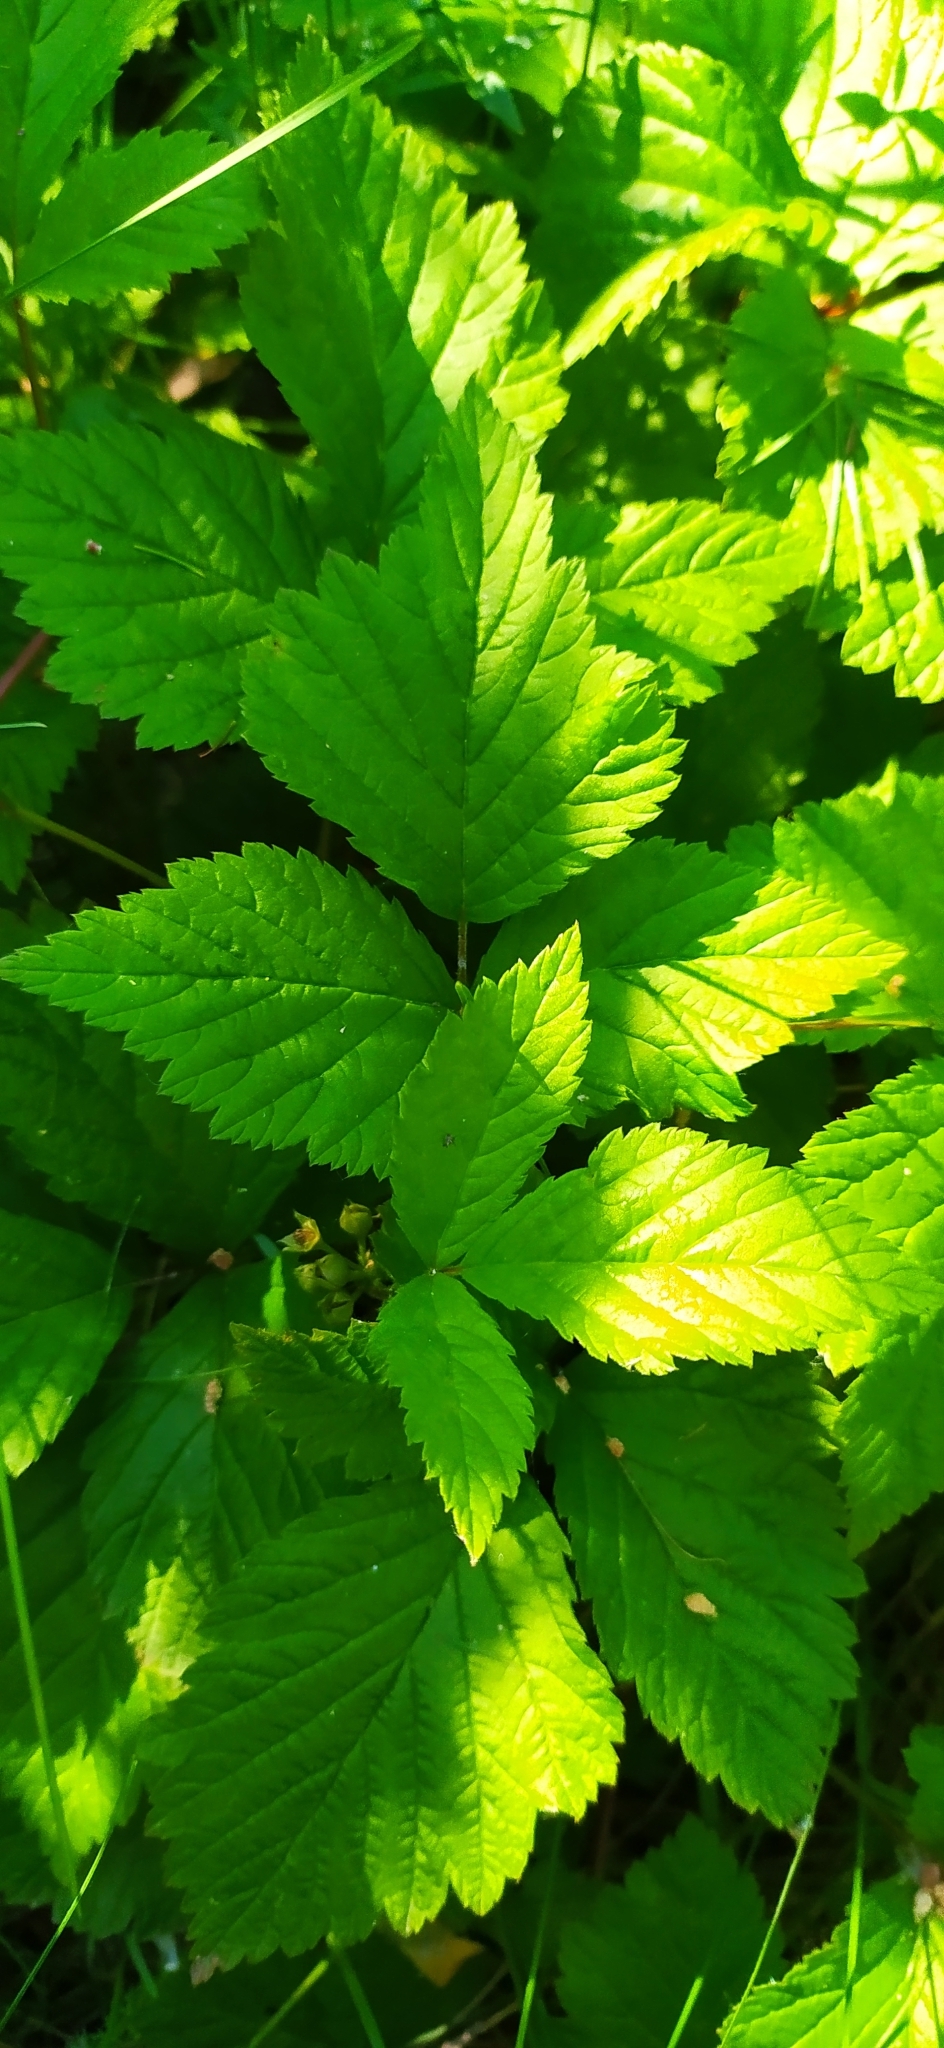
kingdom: Plantae
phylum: Tracheophyta
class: Magnoliopsida
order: Rosales
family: Rosaceae
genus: Rubus
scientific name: Rubus saxatilis
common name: Stone bramble
